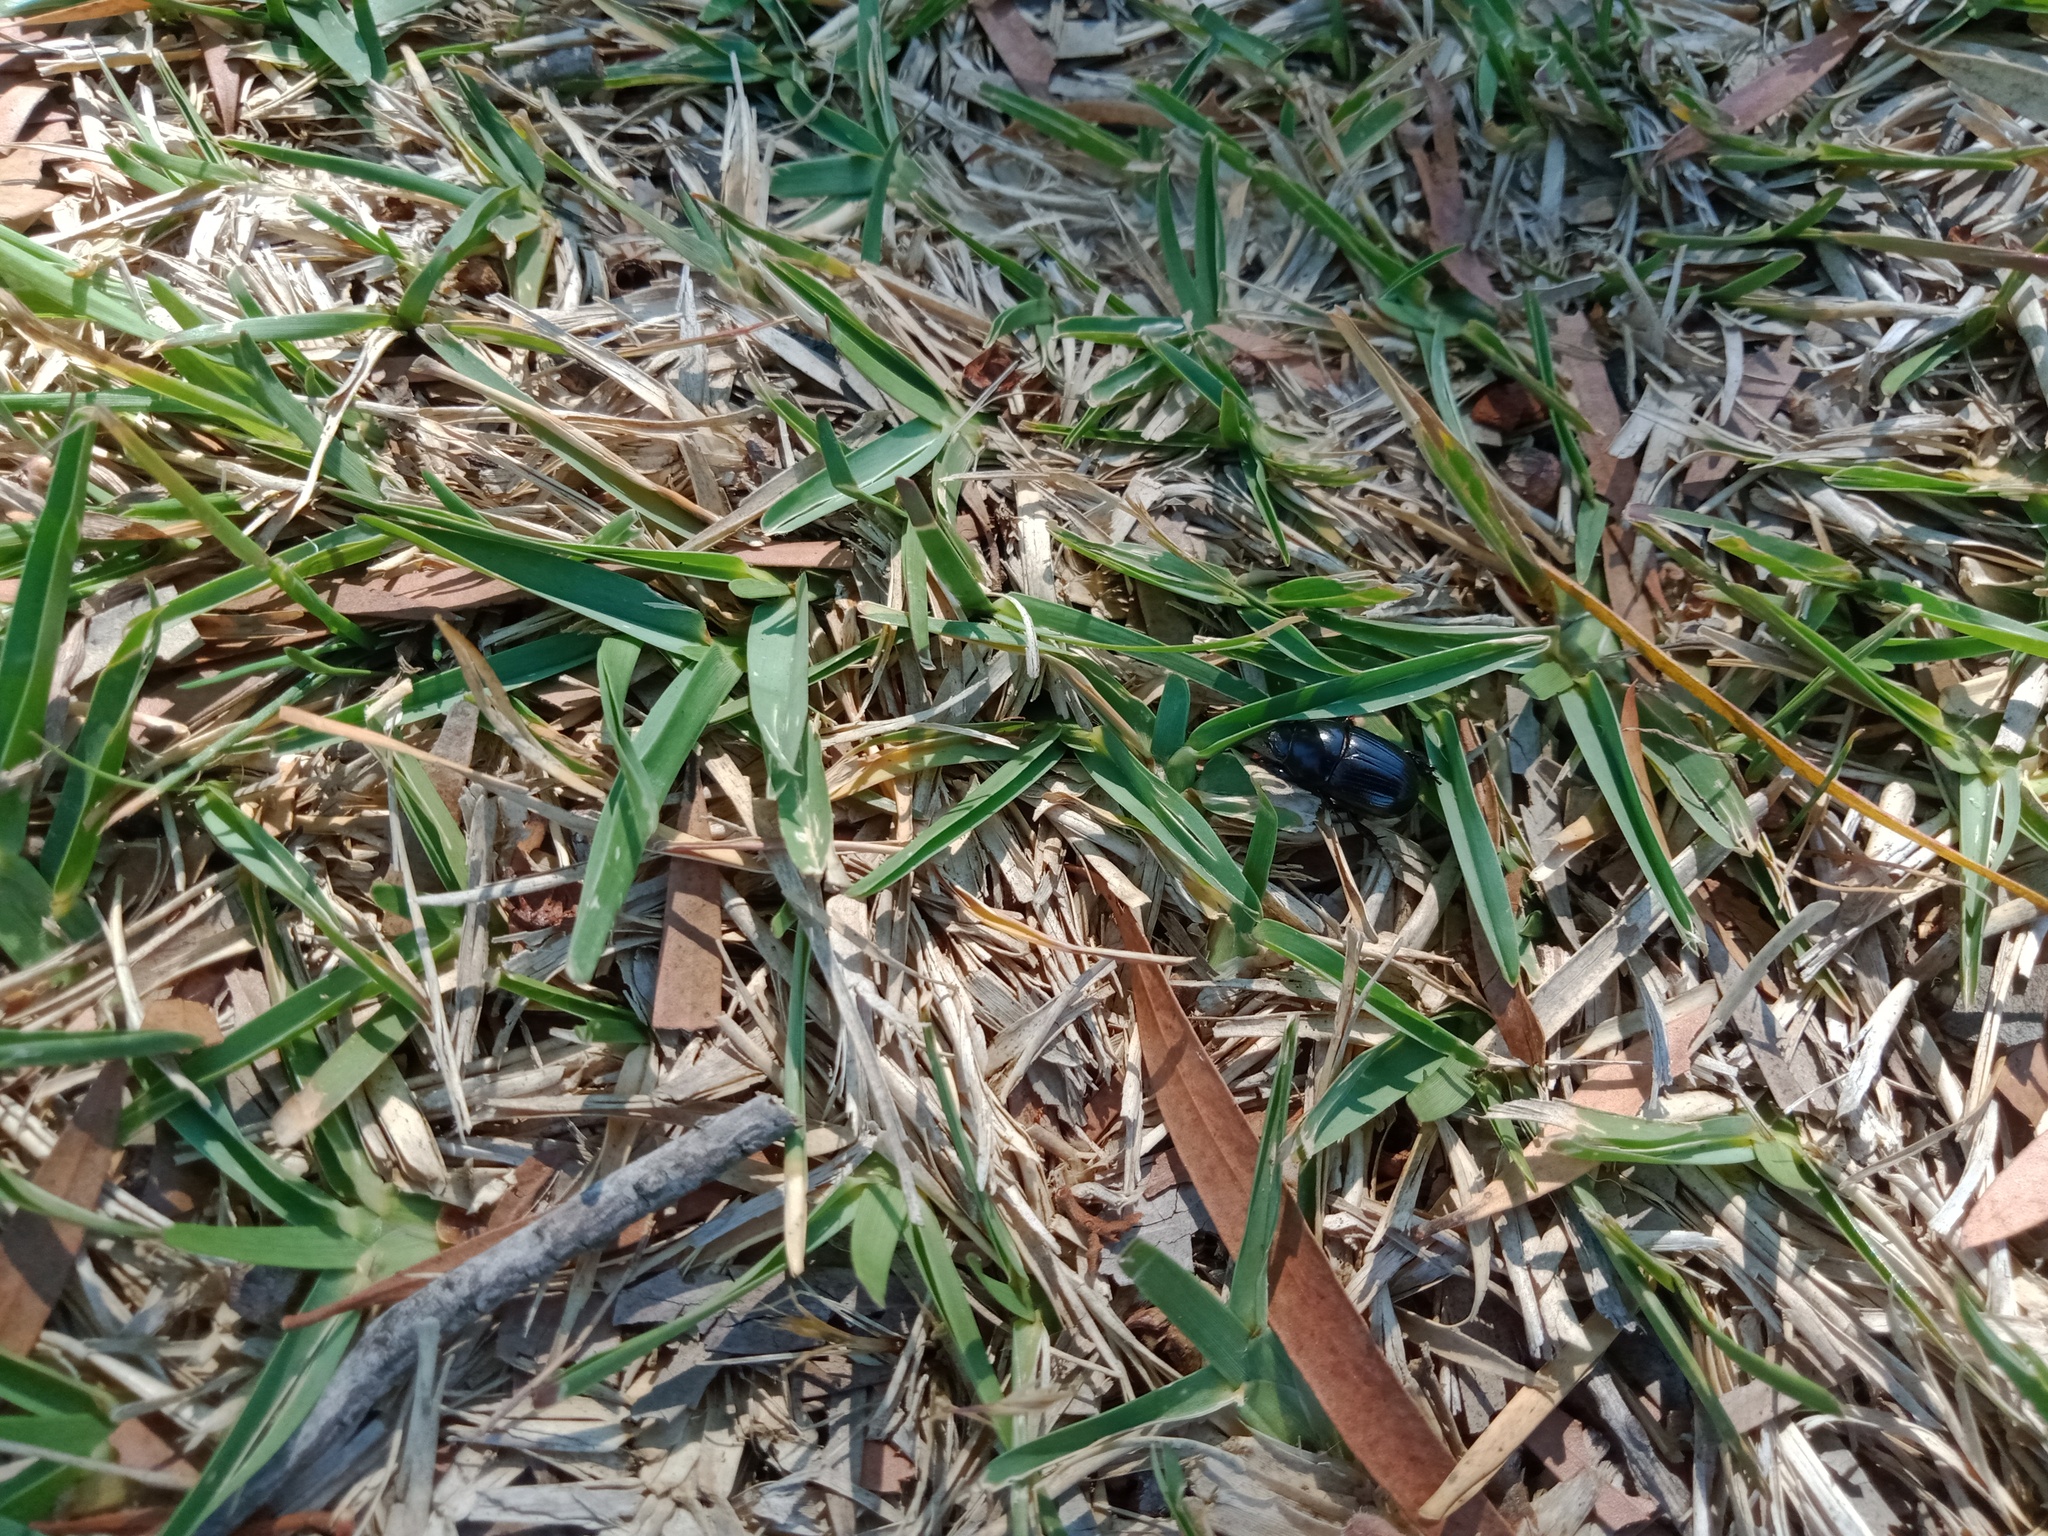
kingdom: Animalia
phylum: Arthropoda
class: Insecta
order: Coleoptera
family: Scarabaeidae
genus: Heteronychus
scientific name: Heteronychus arator
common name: African black beetle
